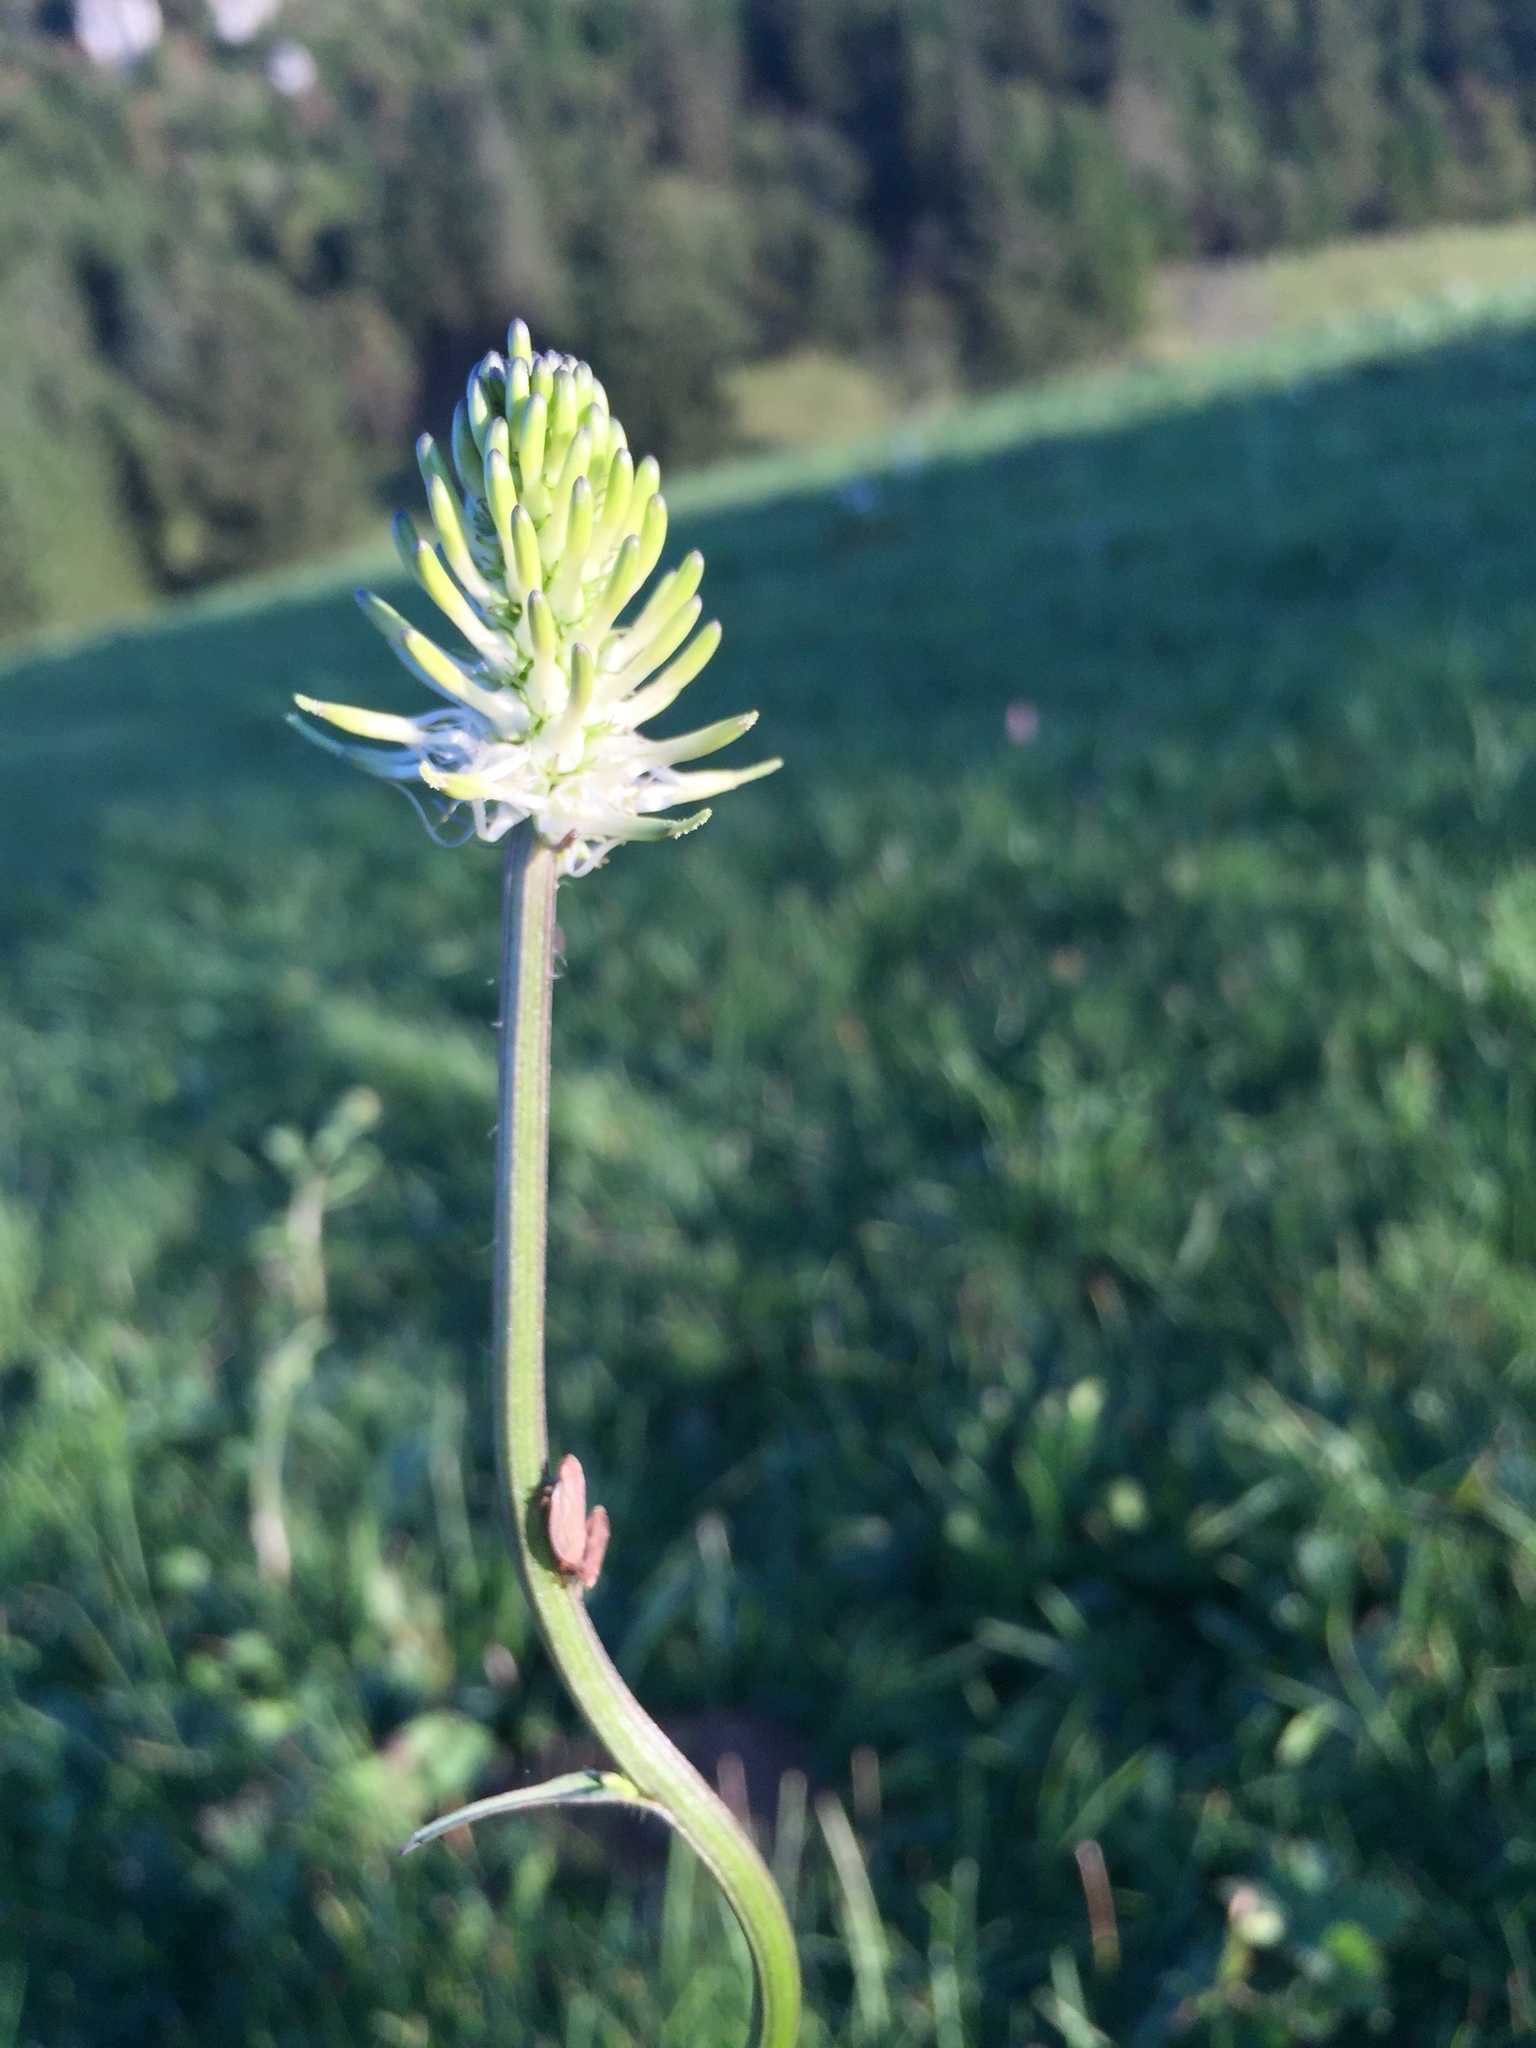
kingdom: Plantae
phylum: Tracheophyta
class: Magnoliopsida
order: Asterales
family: Campanulaceae
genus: Phyteuma
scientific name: Phyteuma spicatum
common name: Spiked rampion
